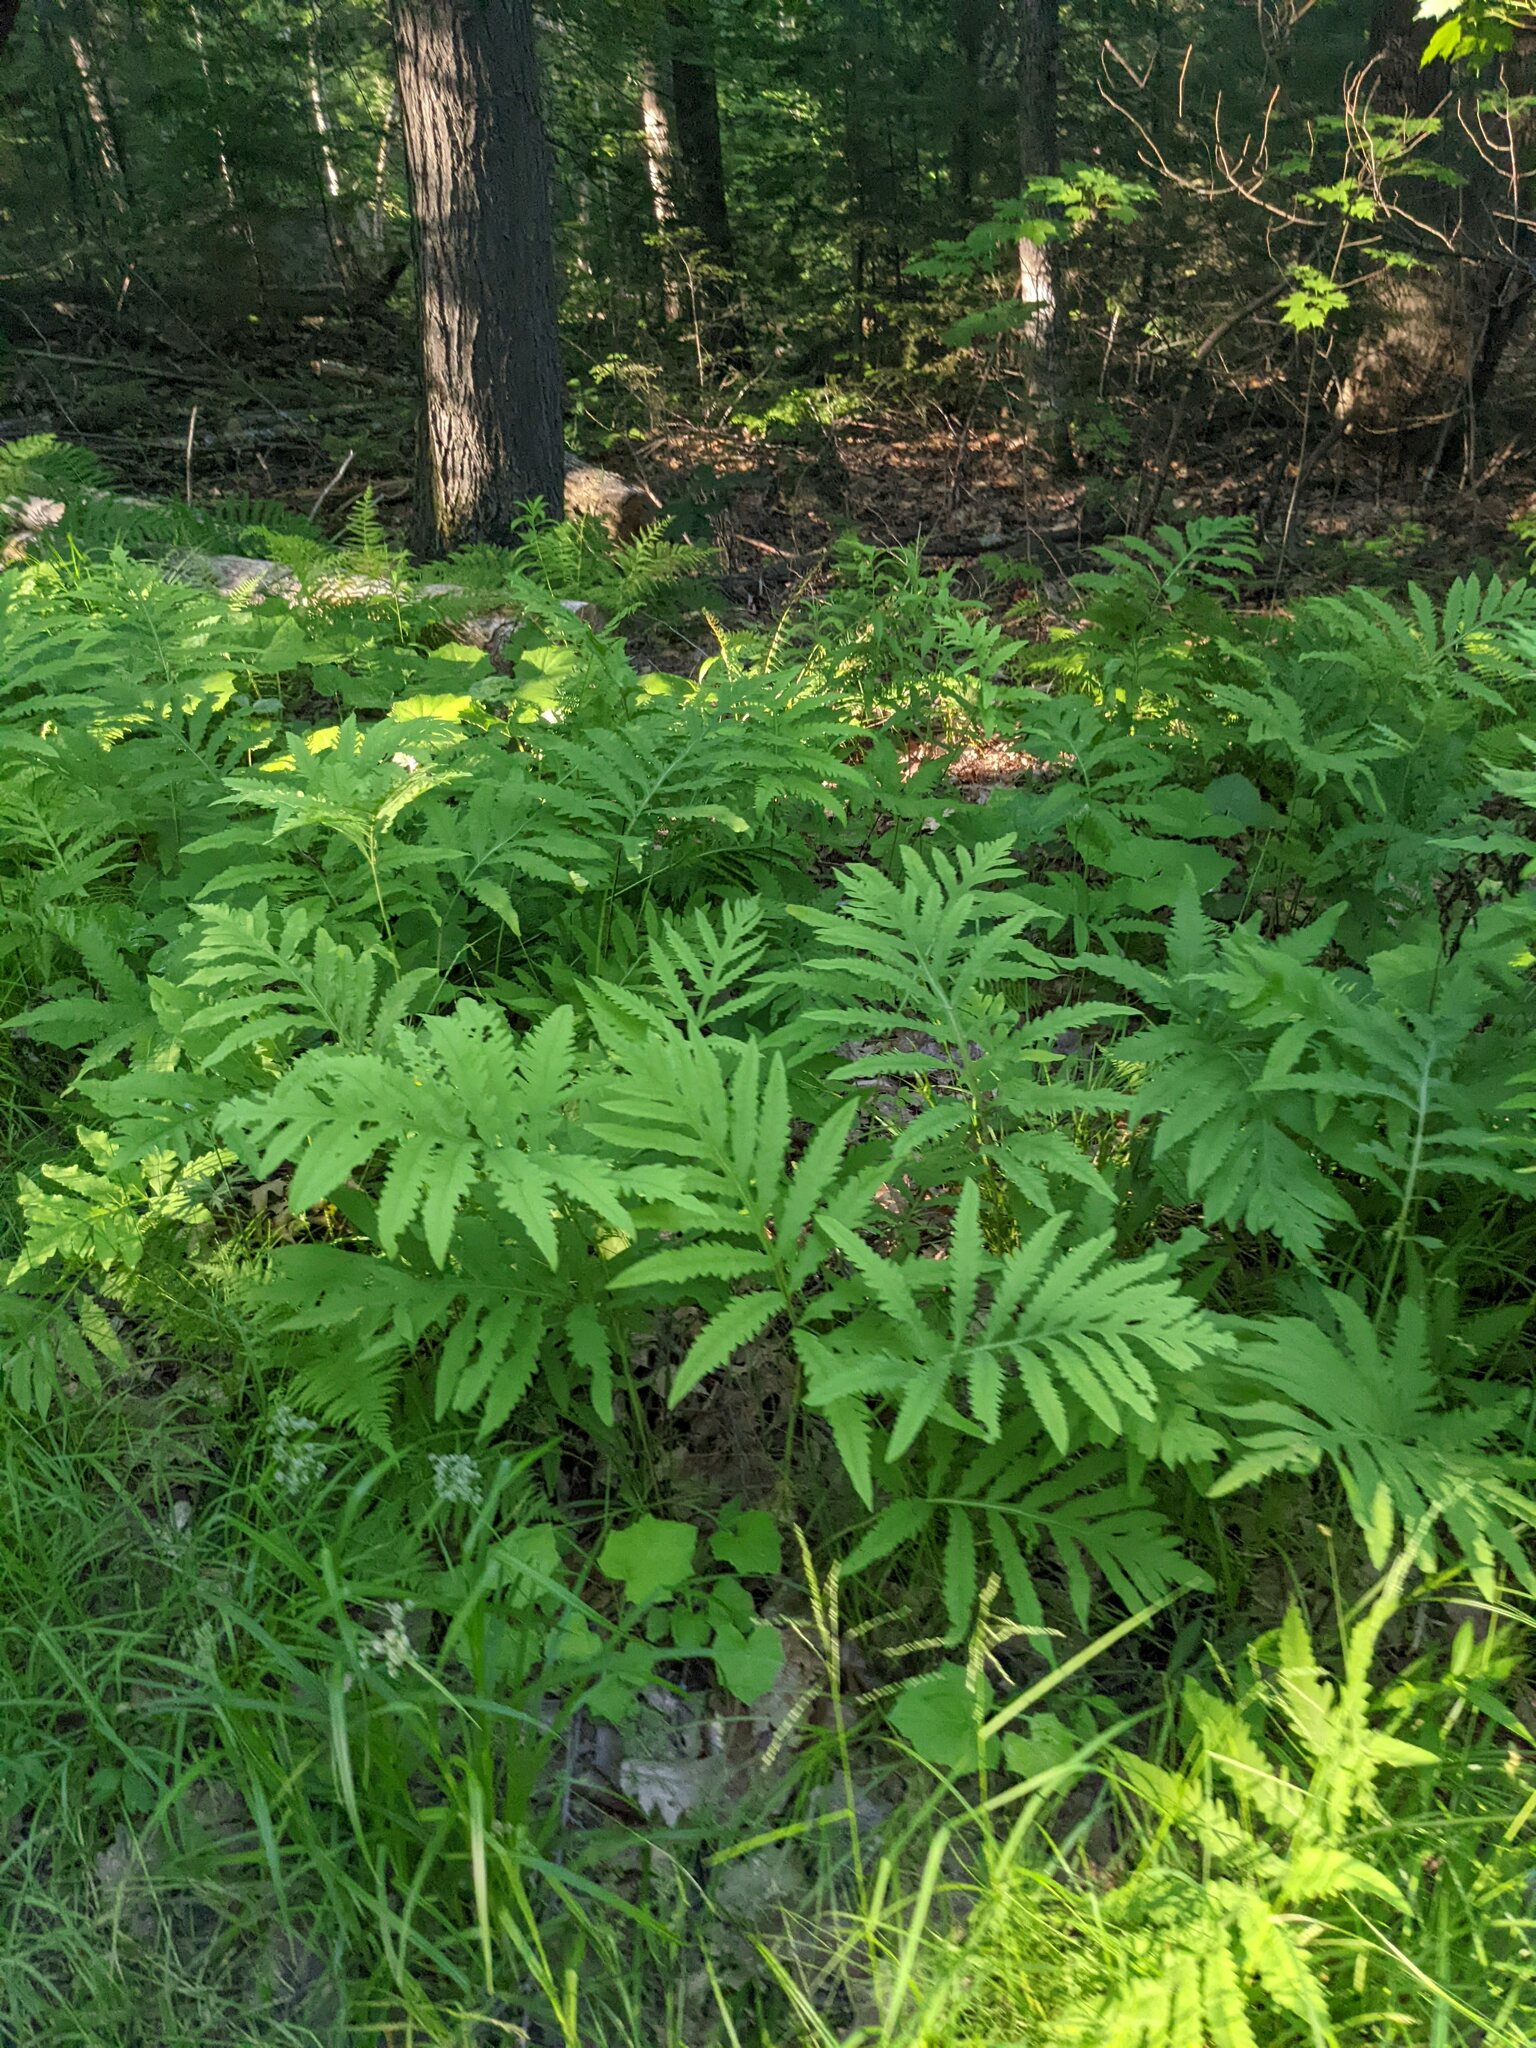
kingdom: Plantae
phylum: Tracheophyta
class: Polypodiopsida
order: Polypodiales
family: Onocleaceae
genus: Onoclea
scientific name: Onoclea sensibilis
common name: Sensitive fern
